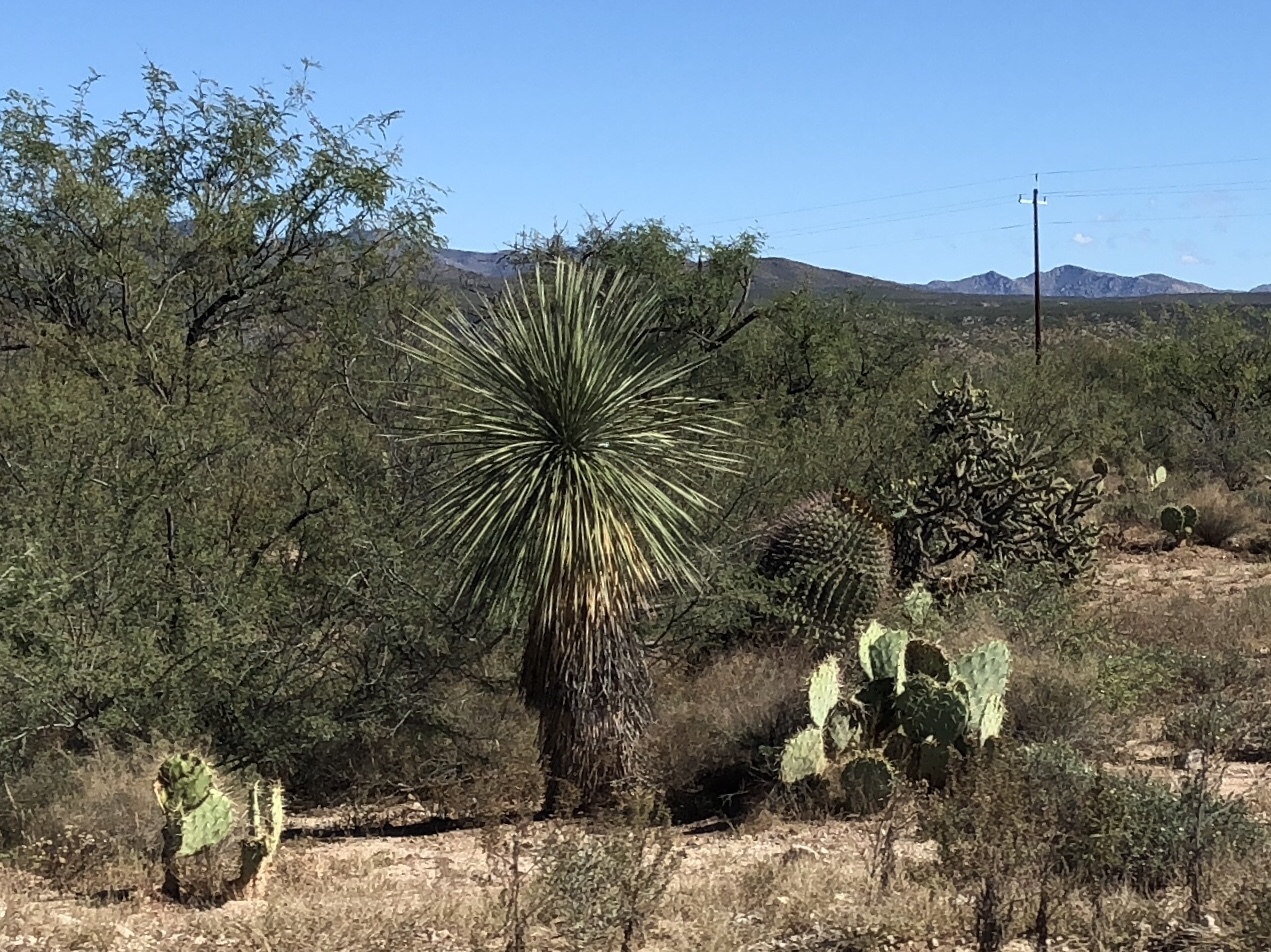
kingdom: Plantae
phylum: Tracheophyta
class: Liliopsida
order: Asparagales
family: Asparagaceae
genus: Yucca
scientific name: Yucca elata
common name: Palmella
